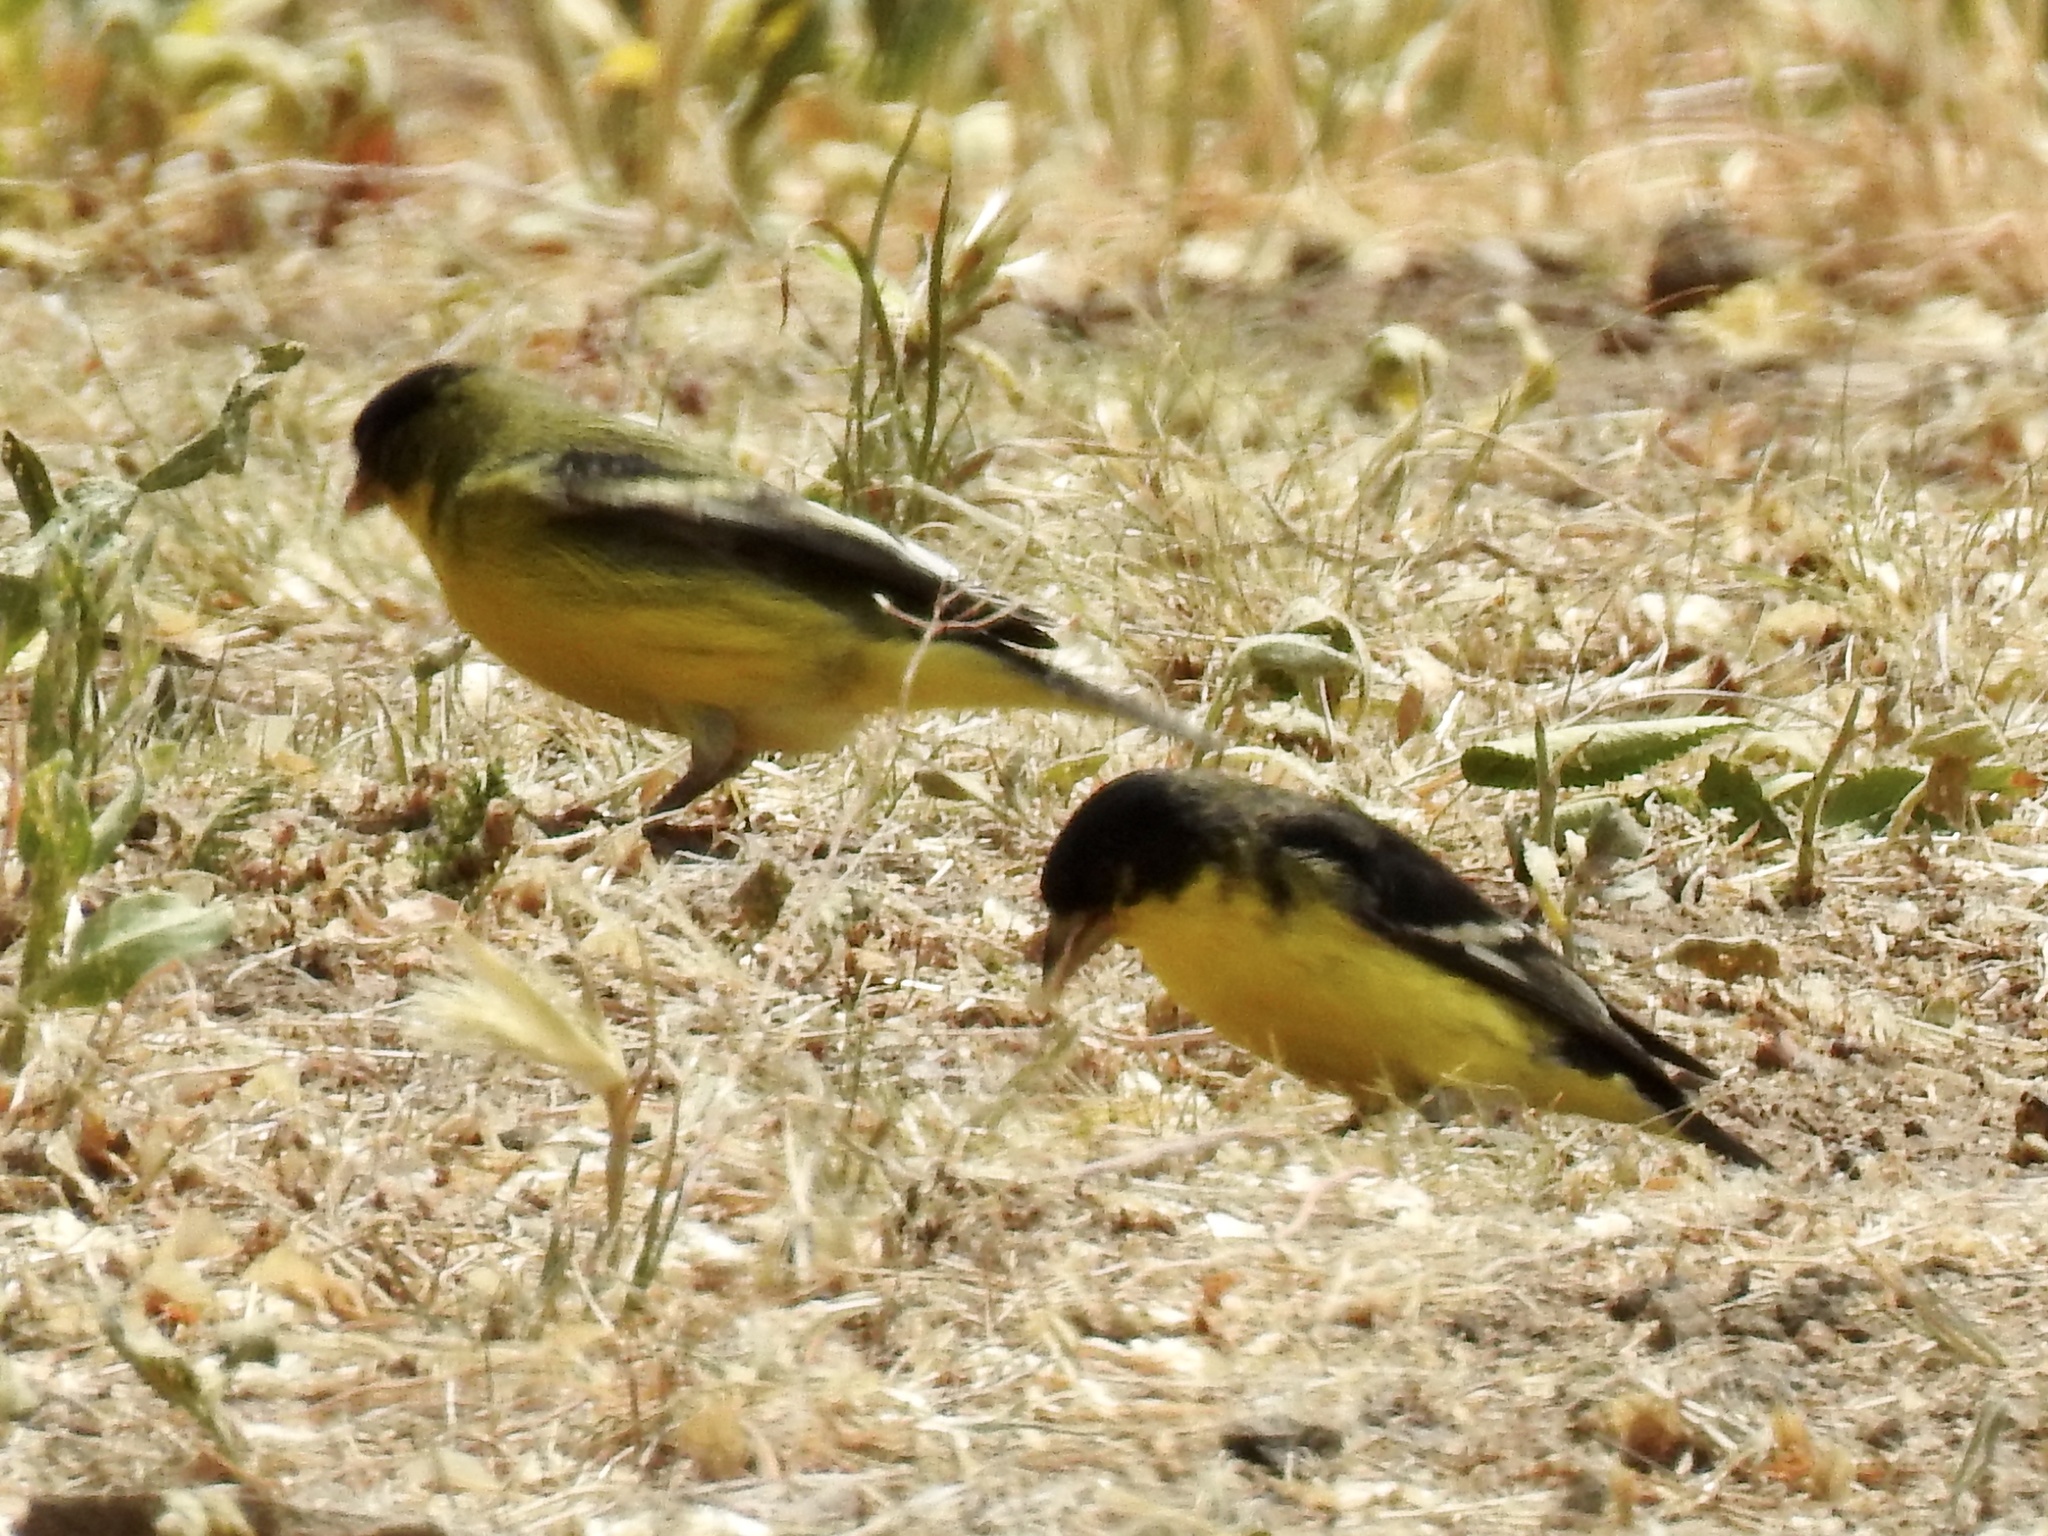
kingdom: Animalia
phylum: Chordata
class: Aves
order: Passeriformes
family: Fringillidae
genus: Spinus
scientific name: Spinus psaltria
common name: Lesser goldfinch
